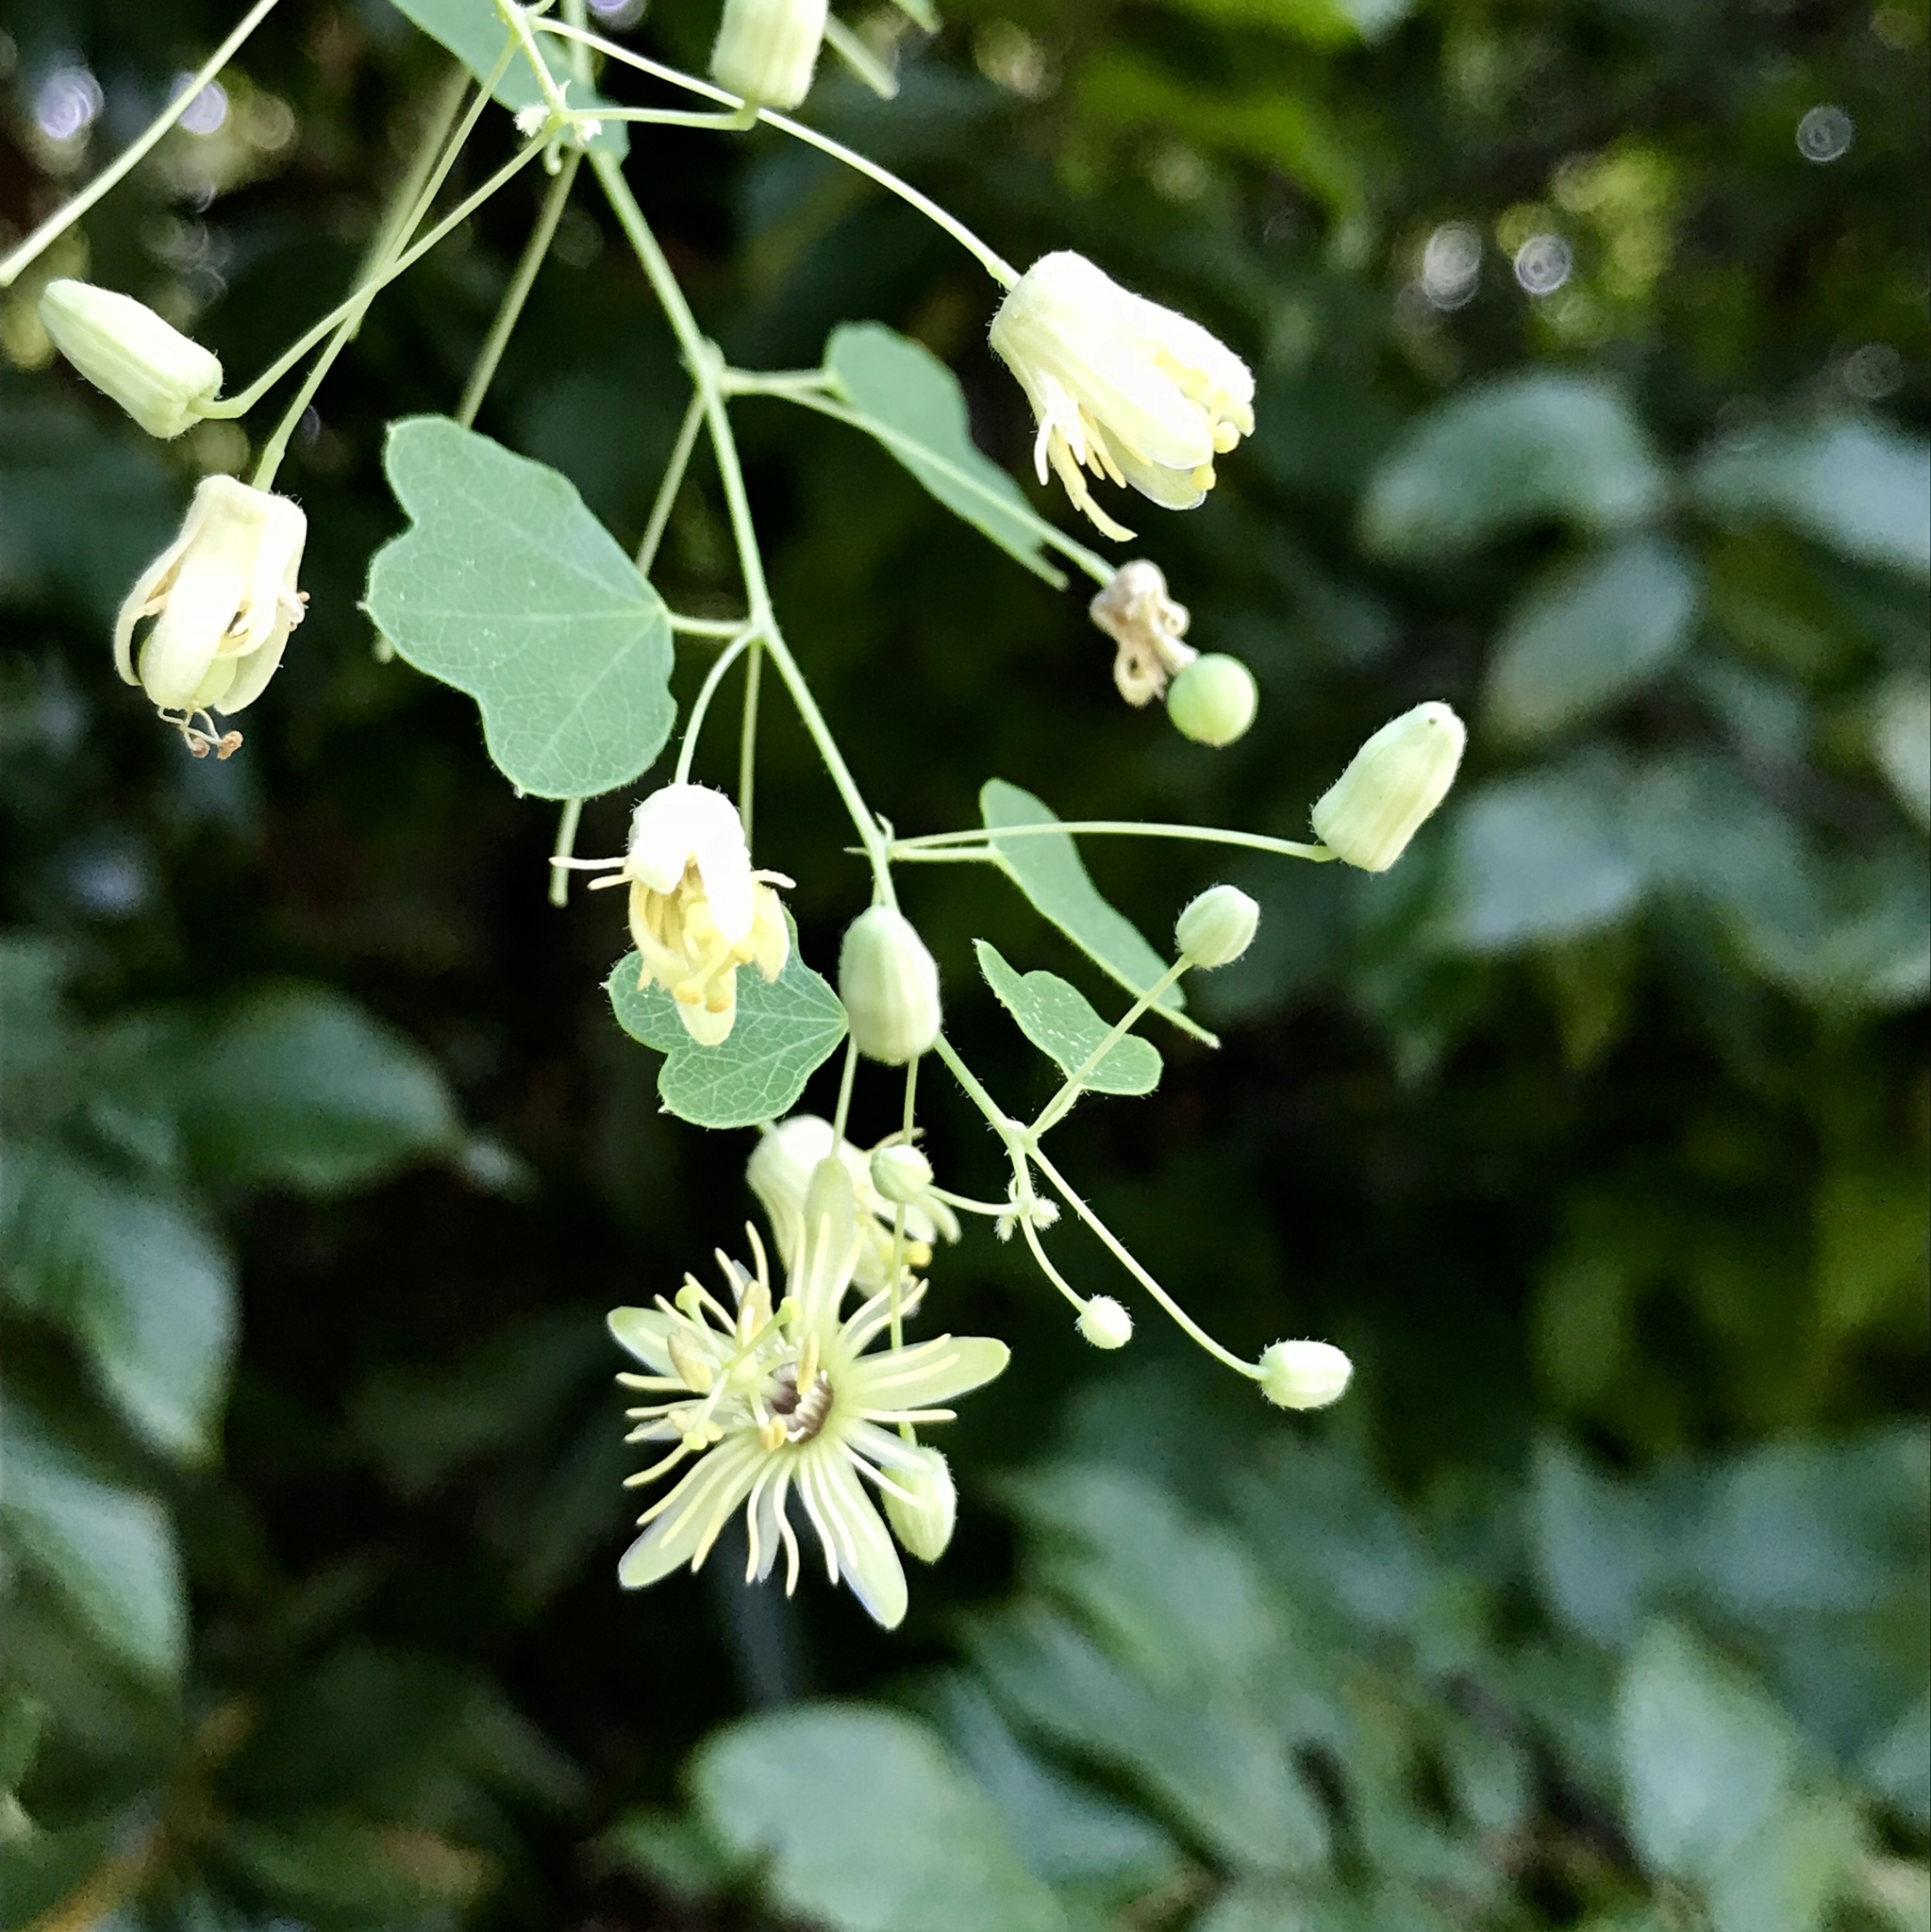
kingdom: Plantae
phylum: Tracheophyta
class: Magnoliopsida
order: Malpighiales
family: Passifloraceae
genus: Passiflora
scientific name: Passiflora lutea
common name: Yellow passionflower
